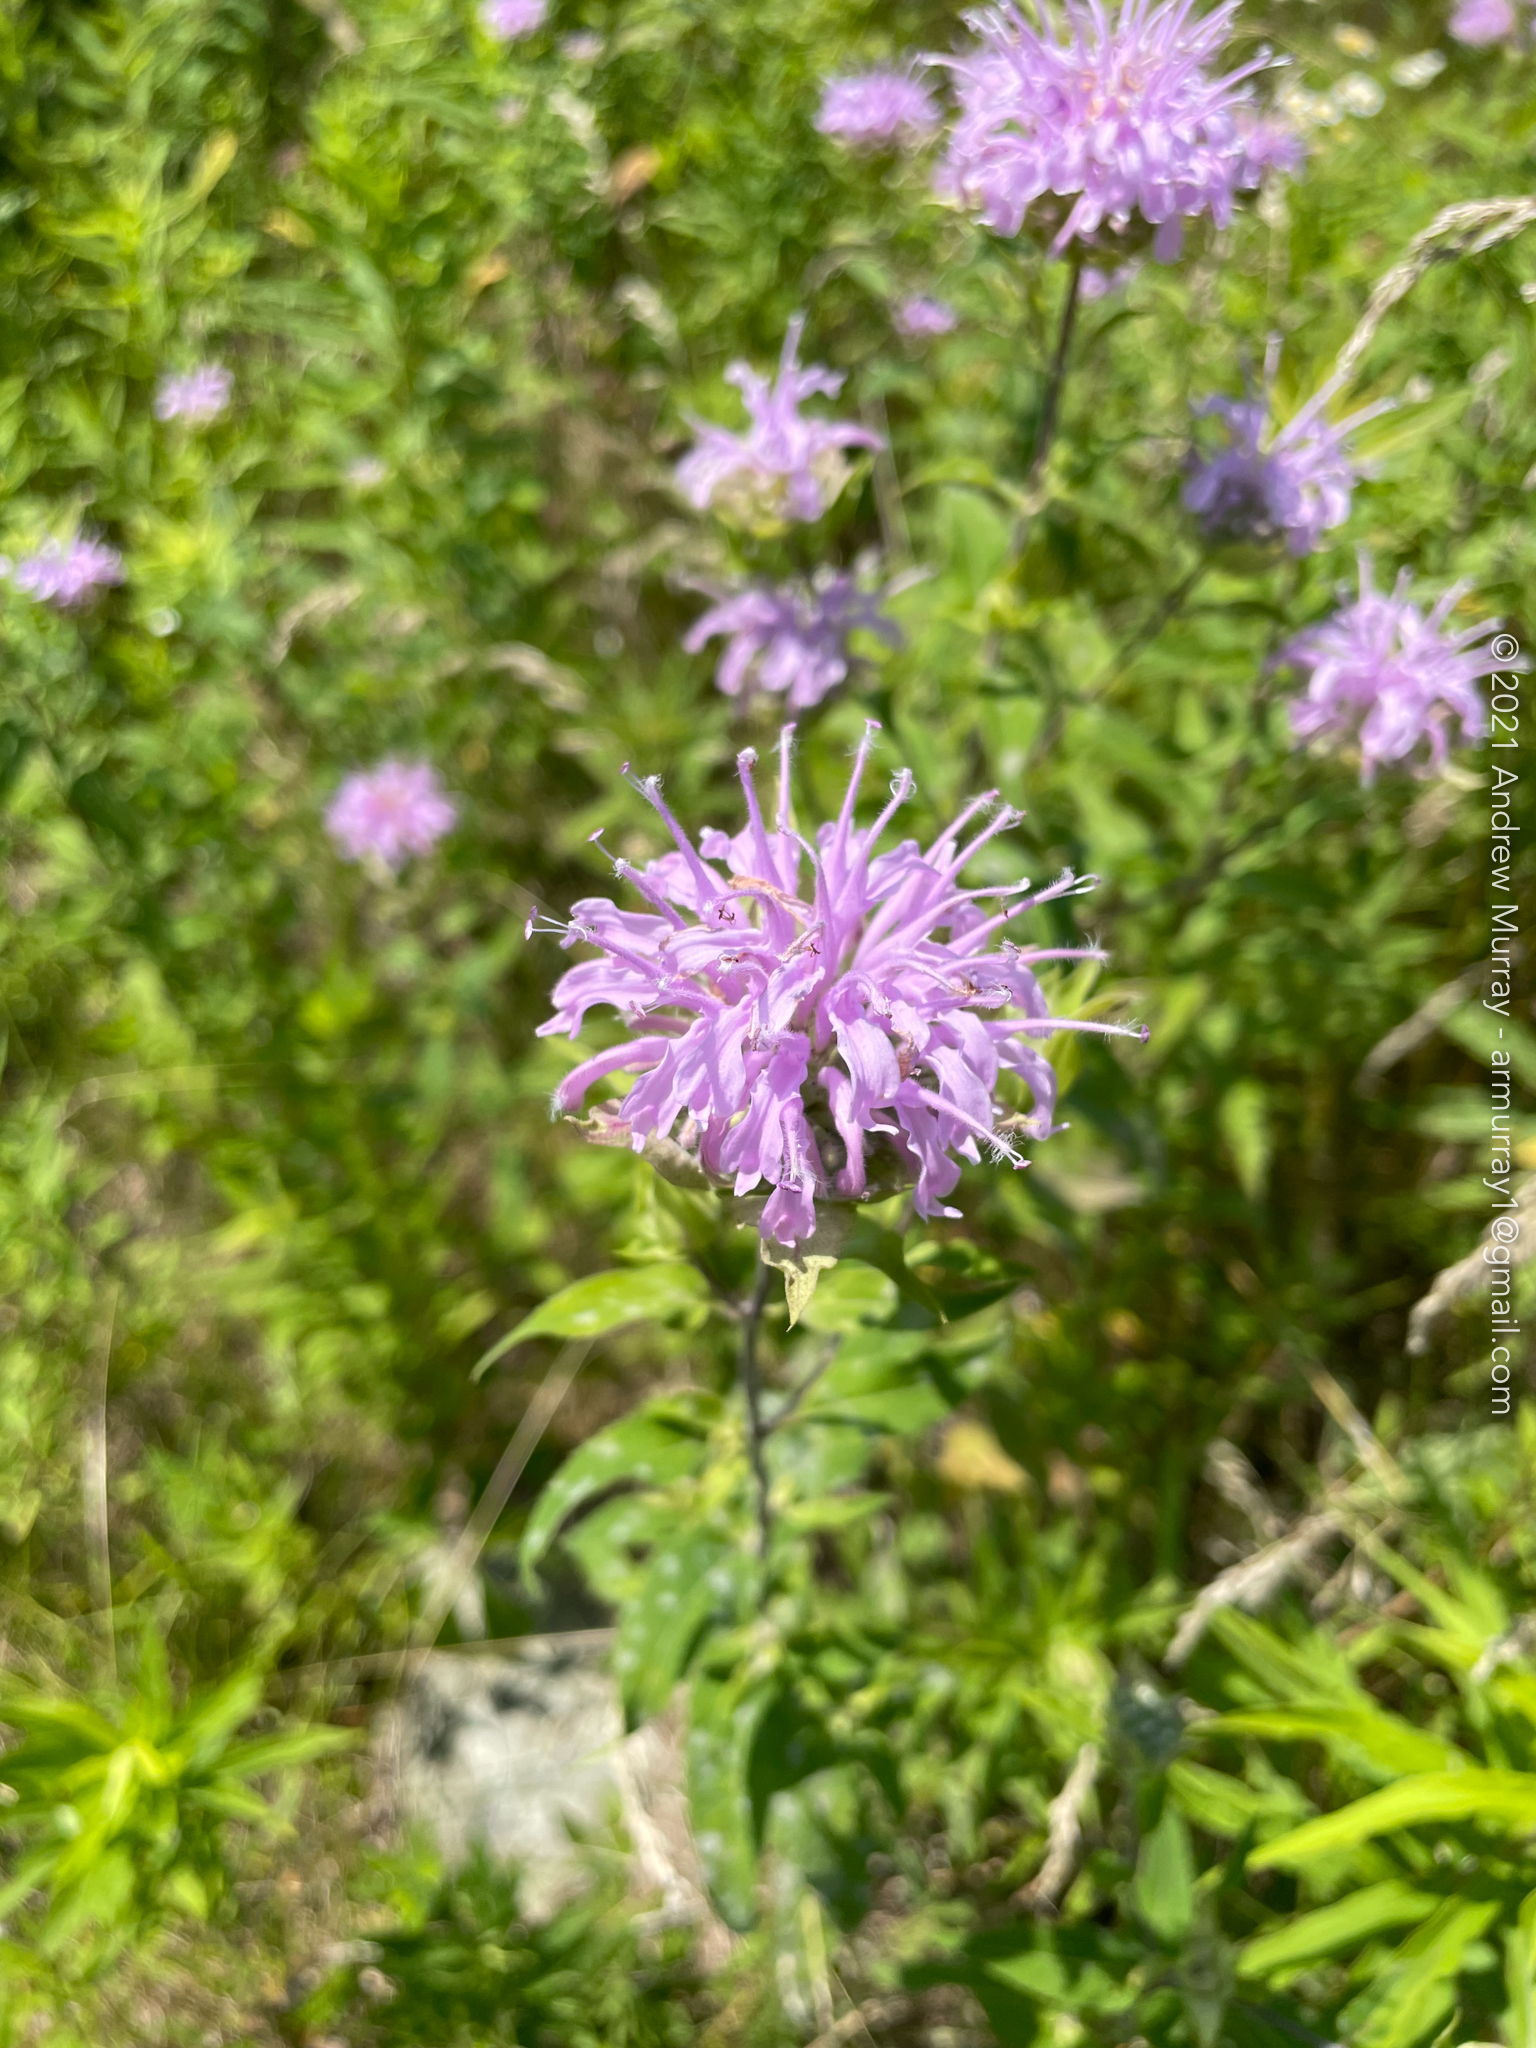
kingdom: Plantae
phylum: Tracheophyta
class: Magnoliopsida
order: Lamiales
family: Lamiaceae
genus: Monarda
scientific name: Monarda fistulosa
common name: Purple beebalm
